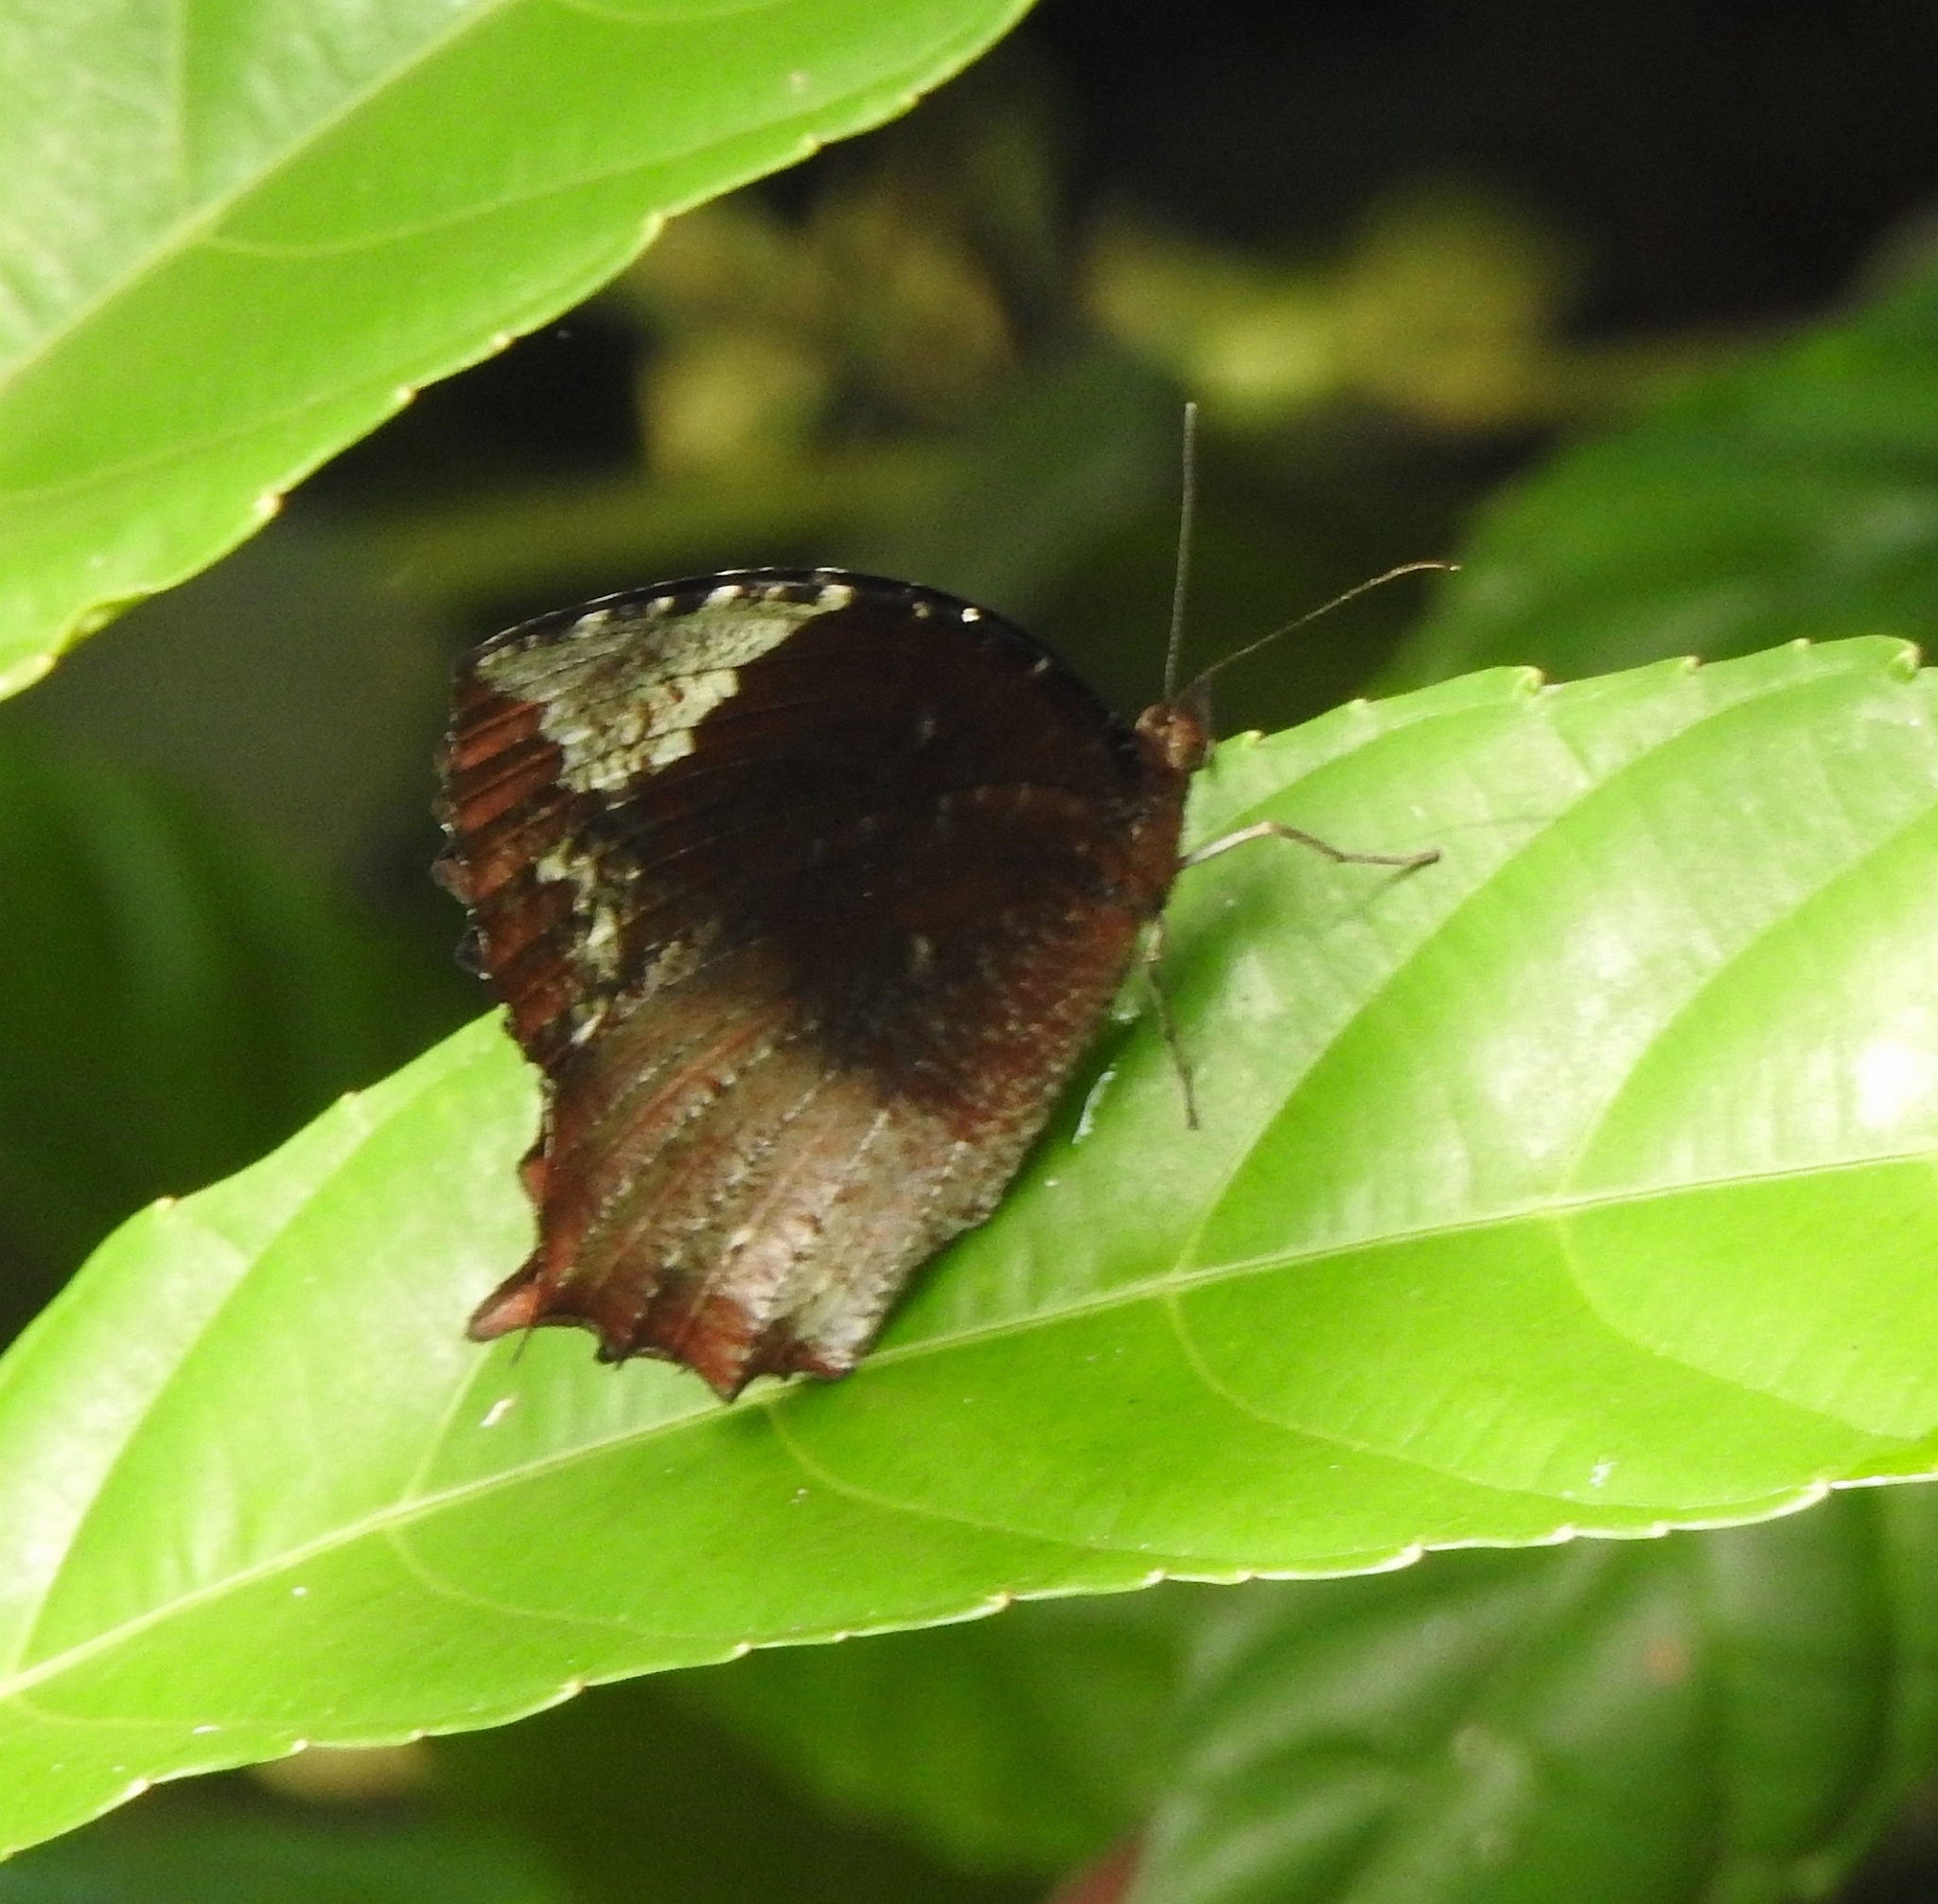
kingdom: Animalia
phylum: Arthropoda
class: Insecta
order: Lepidoptera
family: Nymphalidae
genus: Elymnias
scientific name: Elymnias caudata
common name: Tailed palmfly
